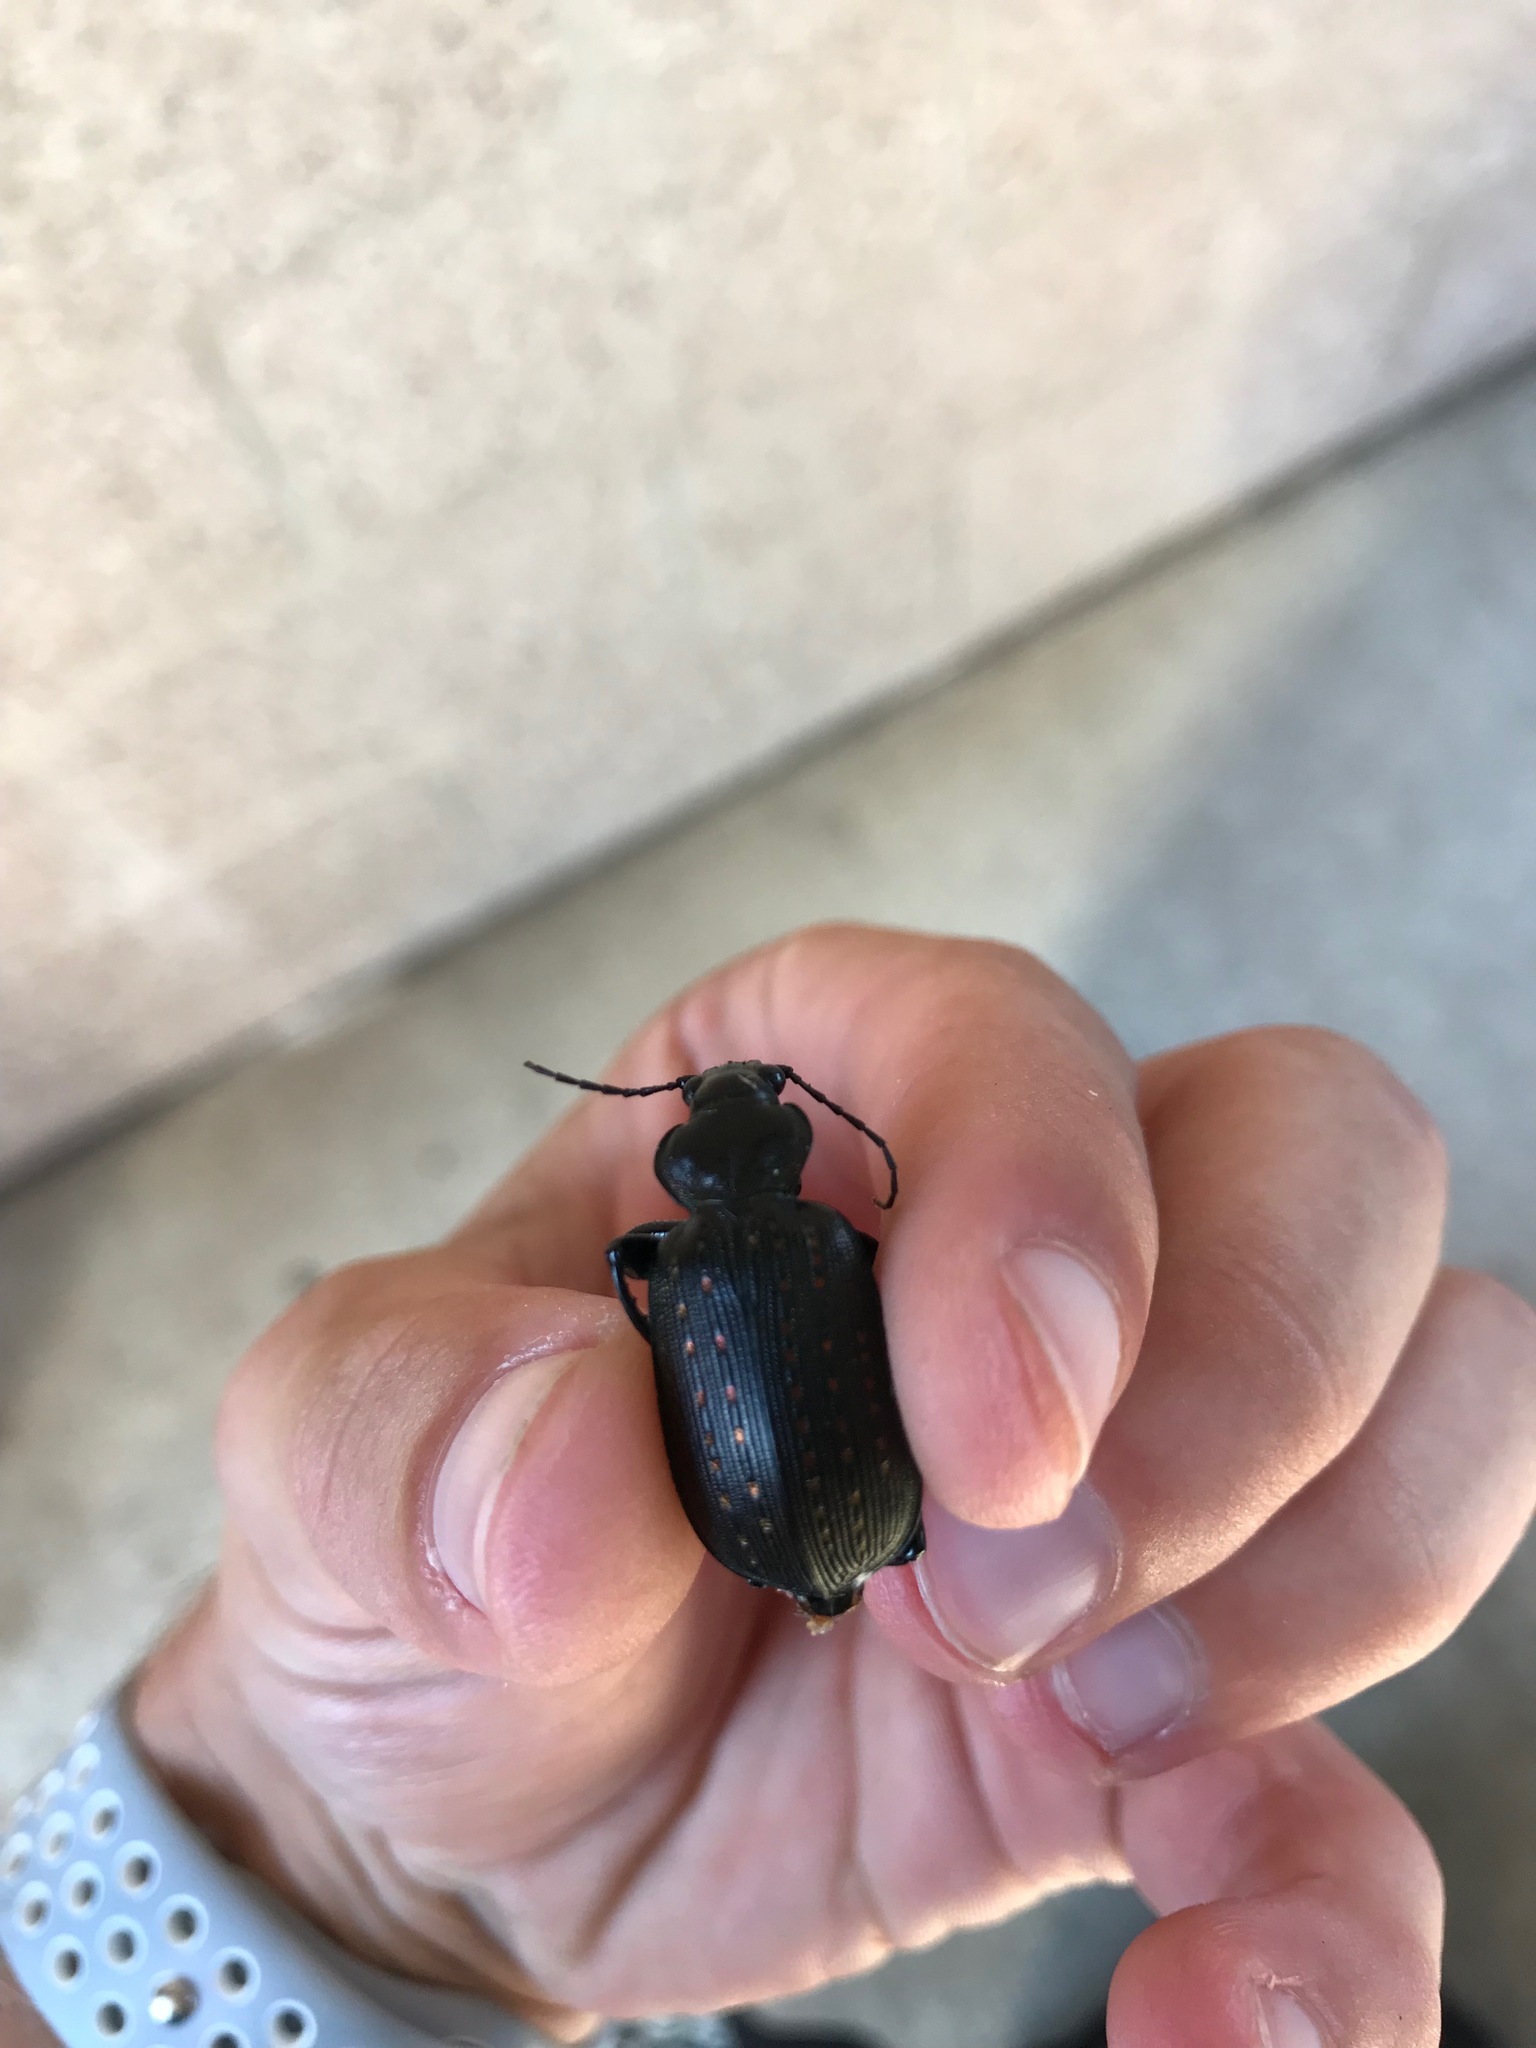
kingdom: Animalia
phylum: Arthropoda
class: Insecta
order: Coleoptera
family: Carabidae
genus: Calosoma
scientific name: Calosoma sayi
